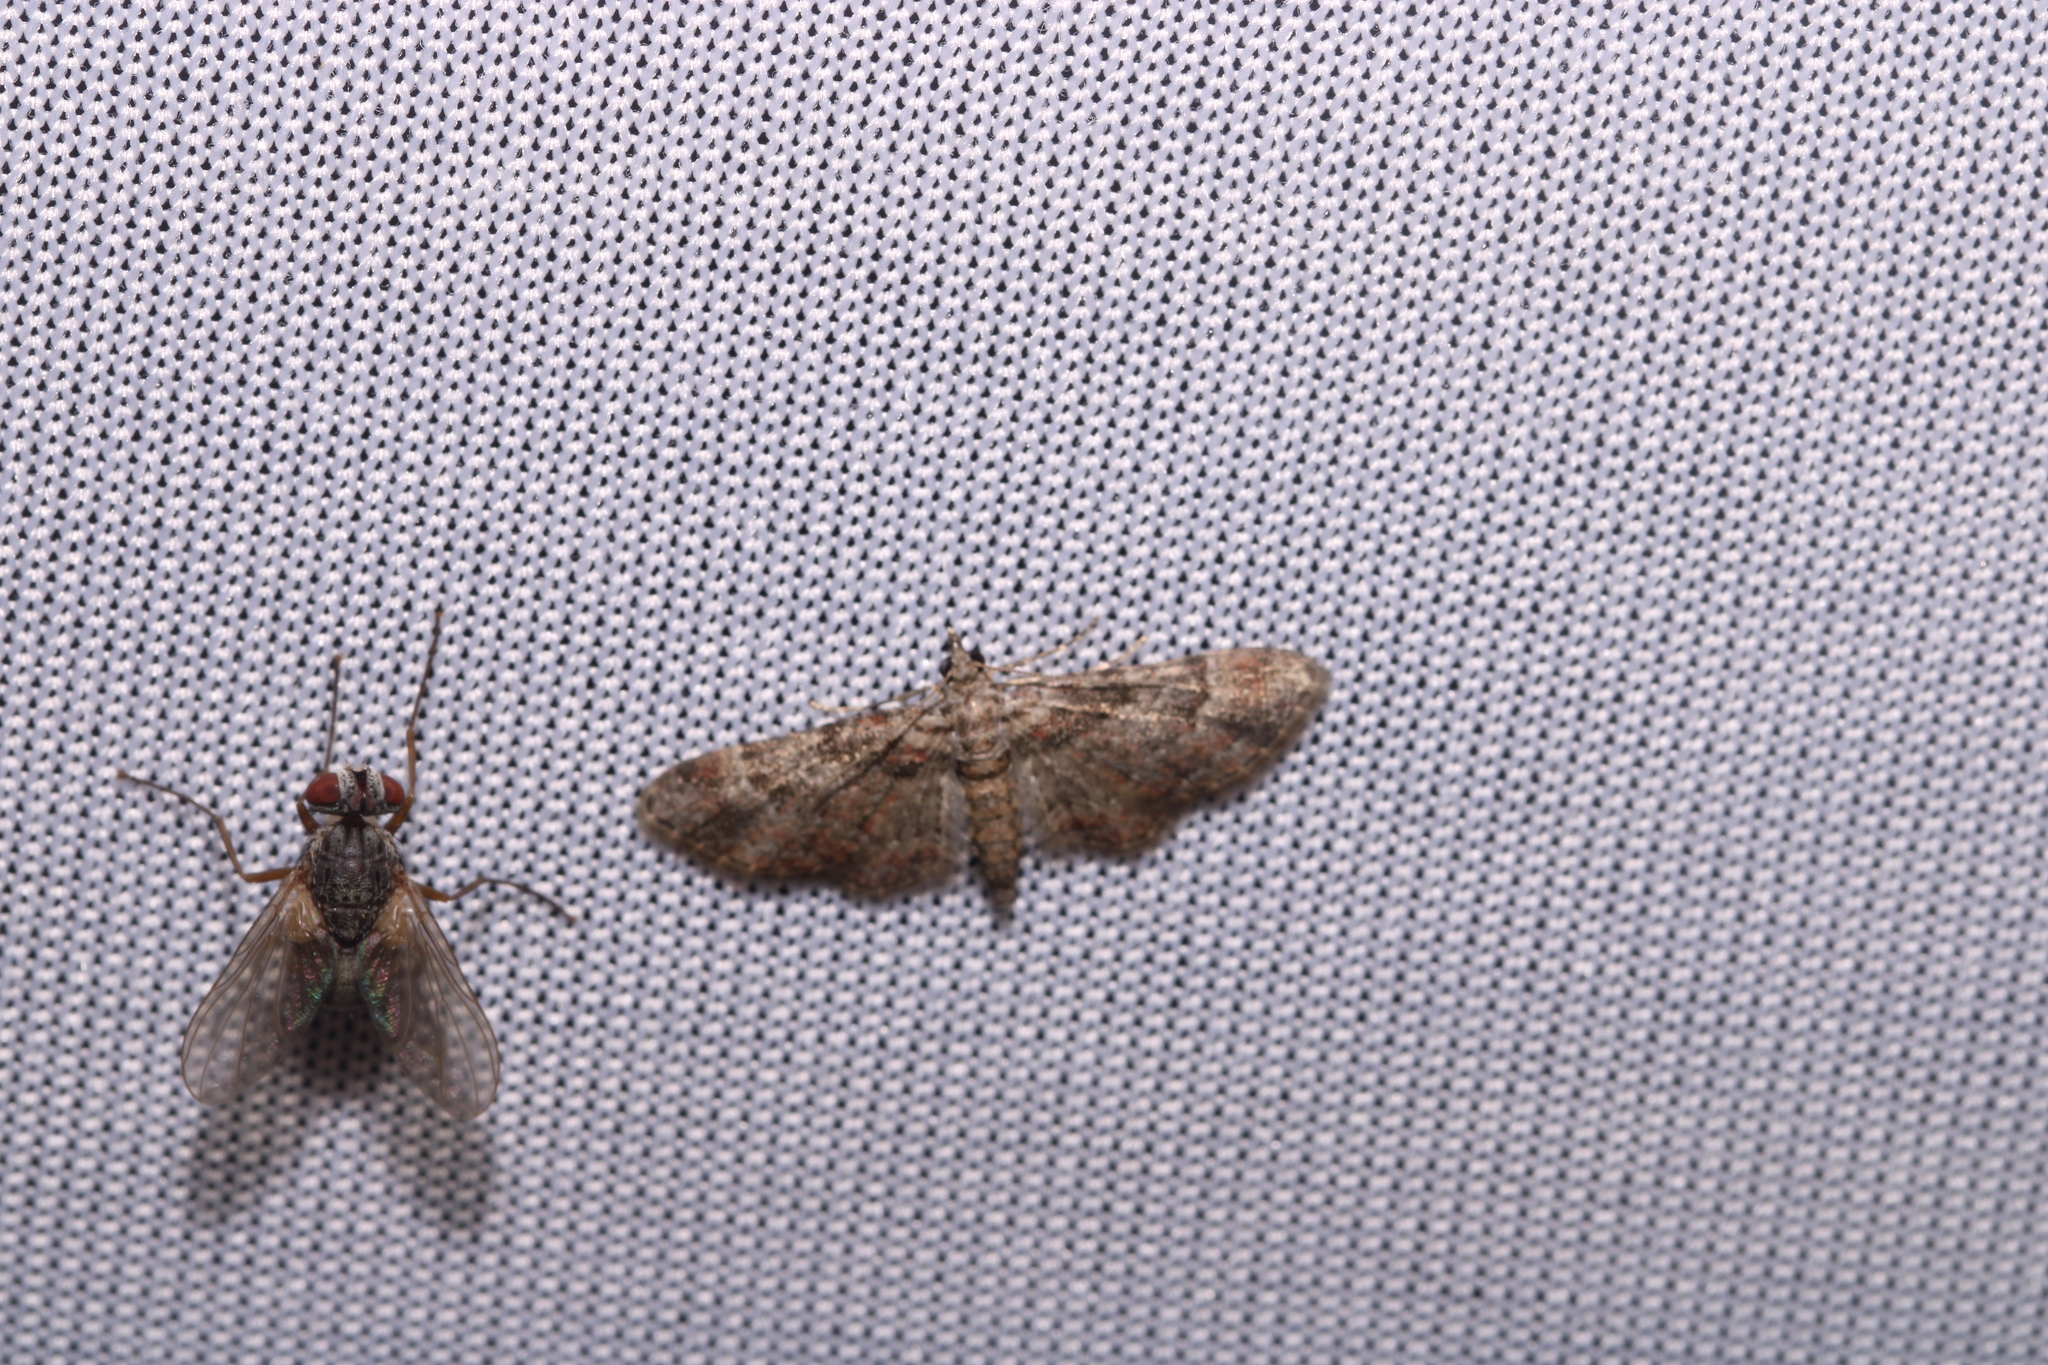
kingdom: Animalia
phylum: Arthropoda
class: Insecta
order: Lepidoptera
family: Geometridae
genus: Gymnoscelis
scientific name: Gymnoscelis rufifasciata
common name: Double-striped pug
